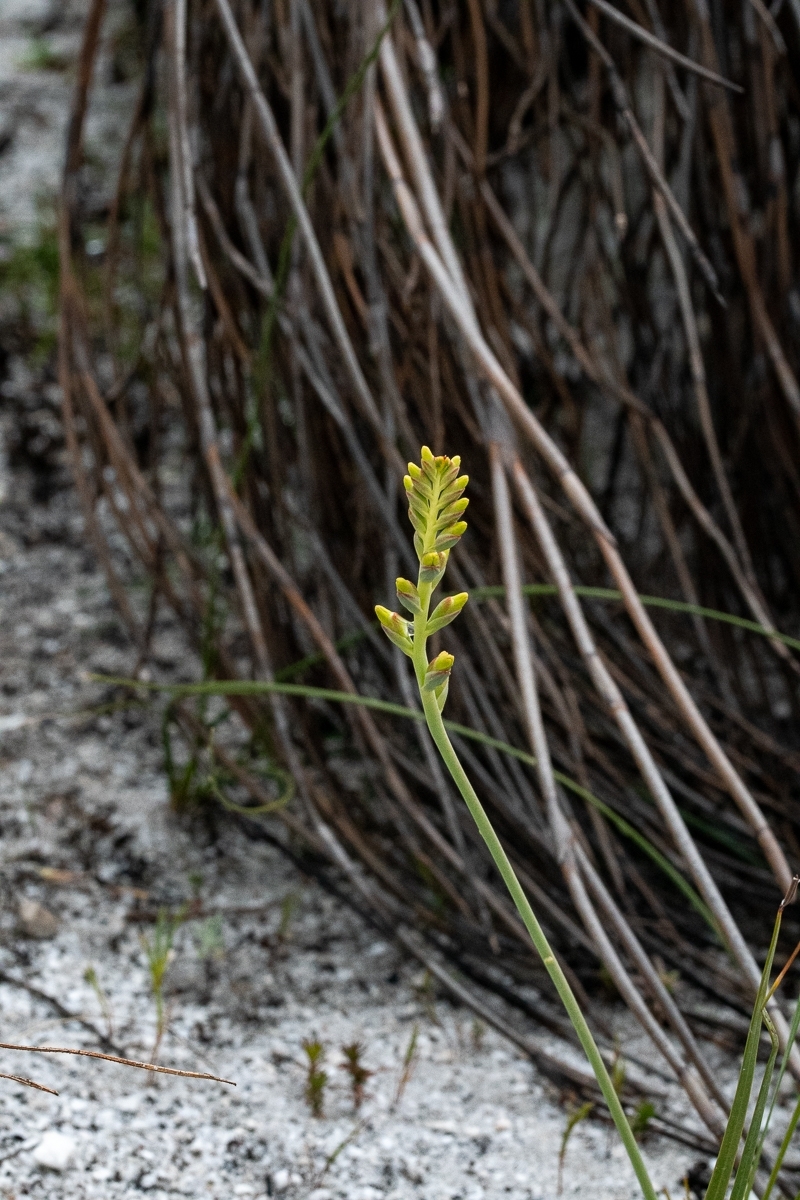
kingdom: Plantae
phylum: Tracheophyta
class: Liliopsida
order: Asparagales
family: Iridaceae
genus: Tritoniopsis
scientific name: Tritoniopsis parviflora
